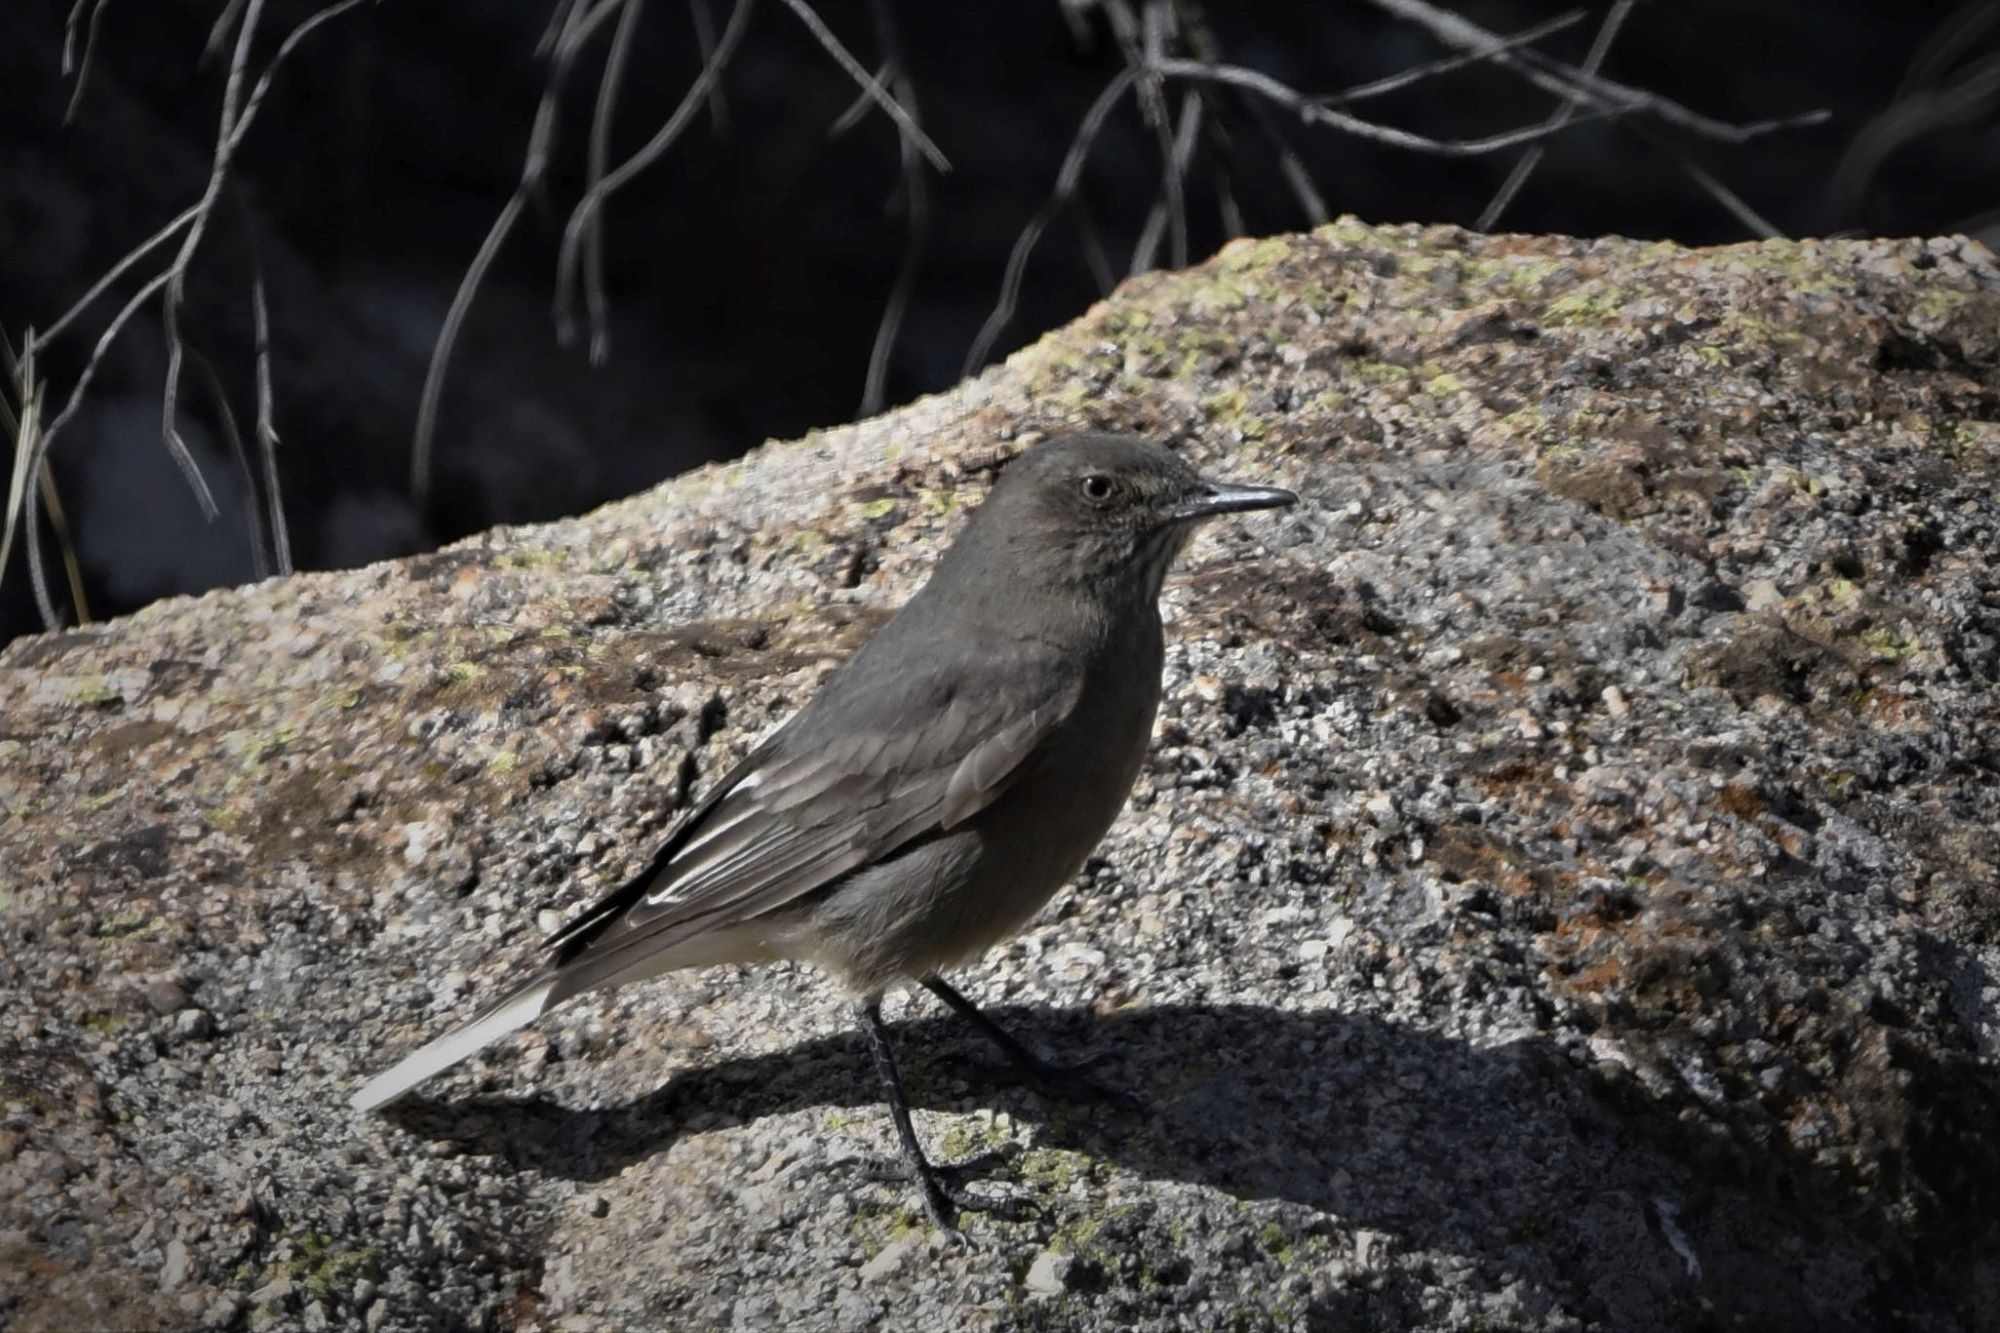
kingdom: Animalia
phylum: Chordata
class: Aves
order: Passeriformes
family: Tyrannidae
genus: Agriornis
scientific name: Agriornis montanus
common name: Black-billed shrike-tyrant
